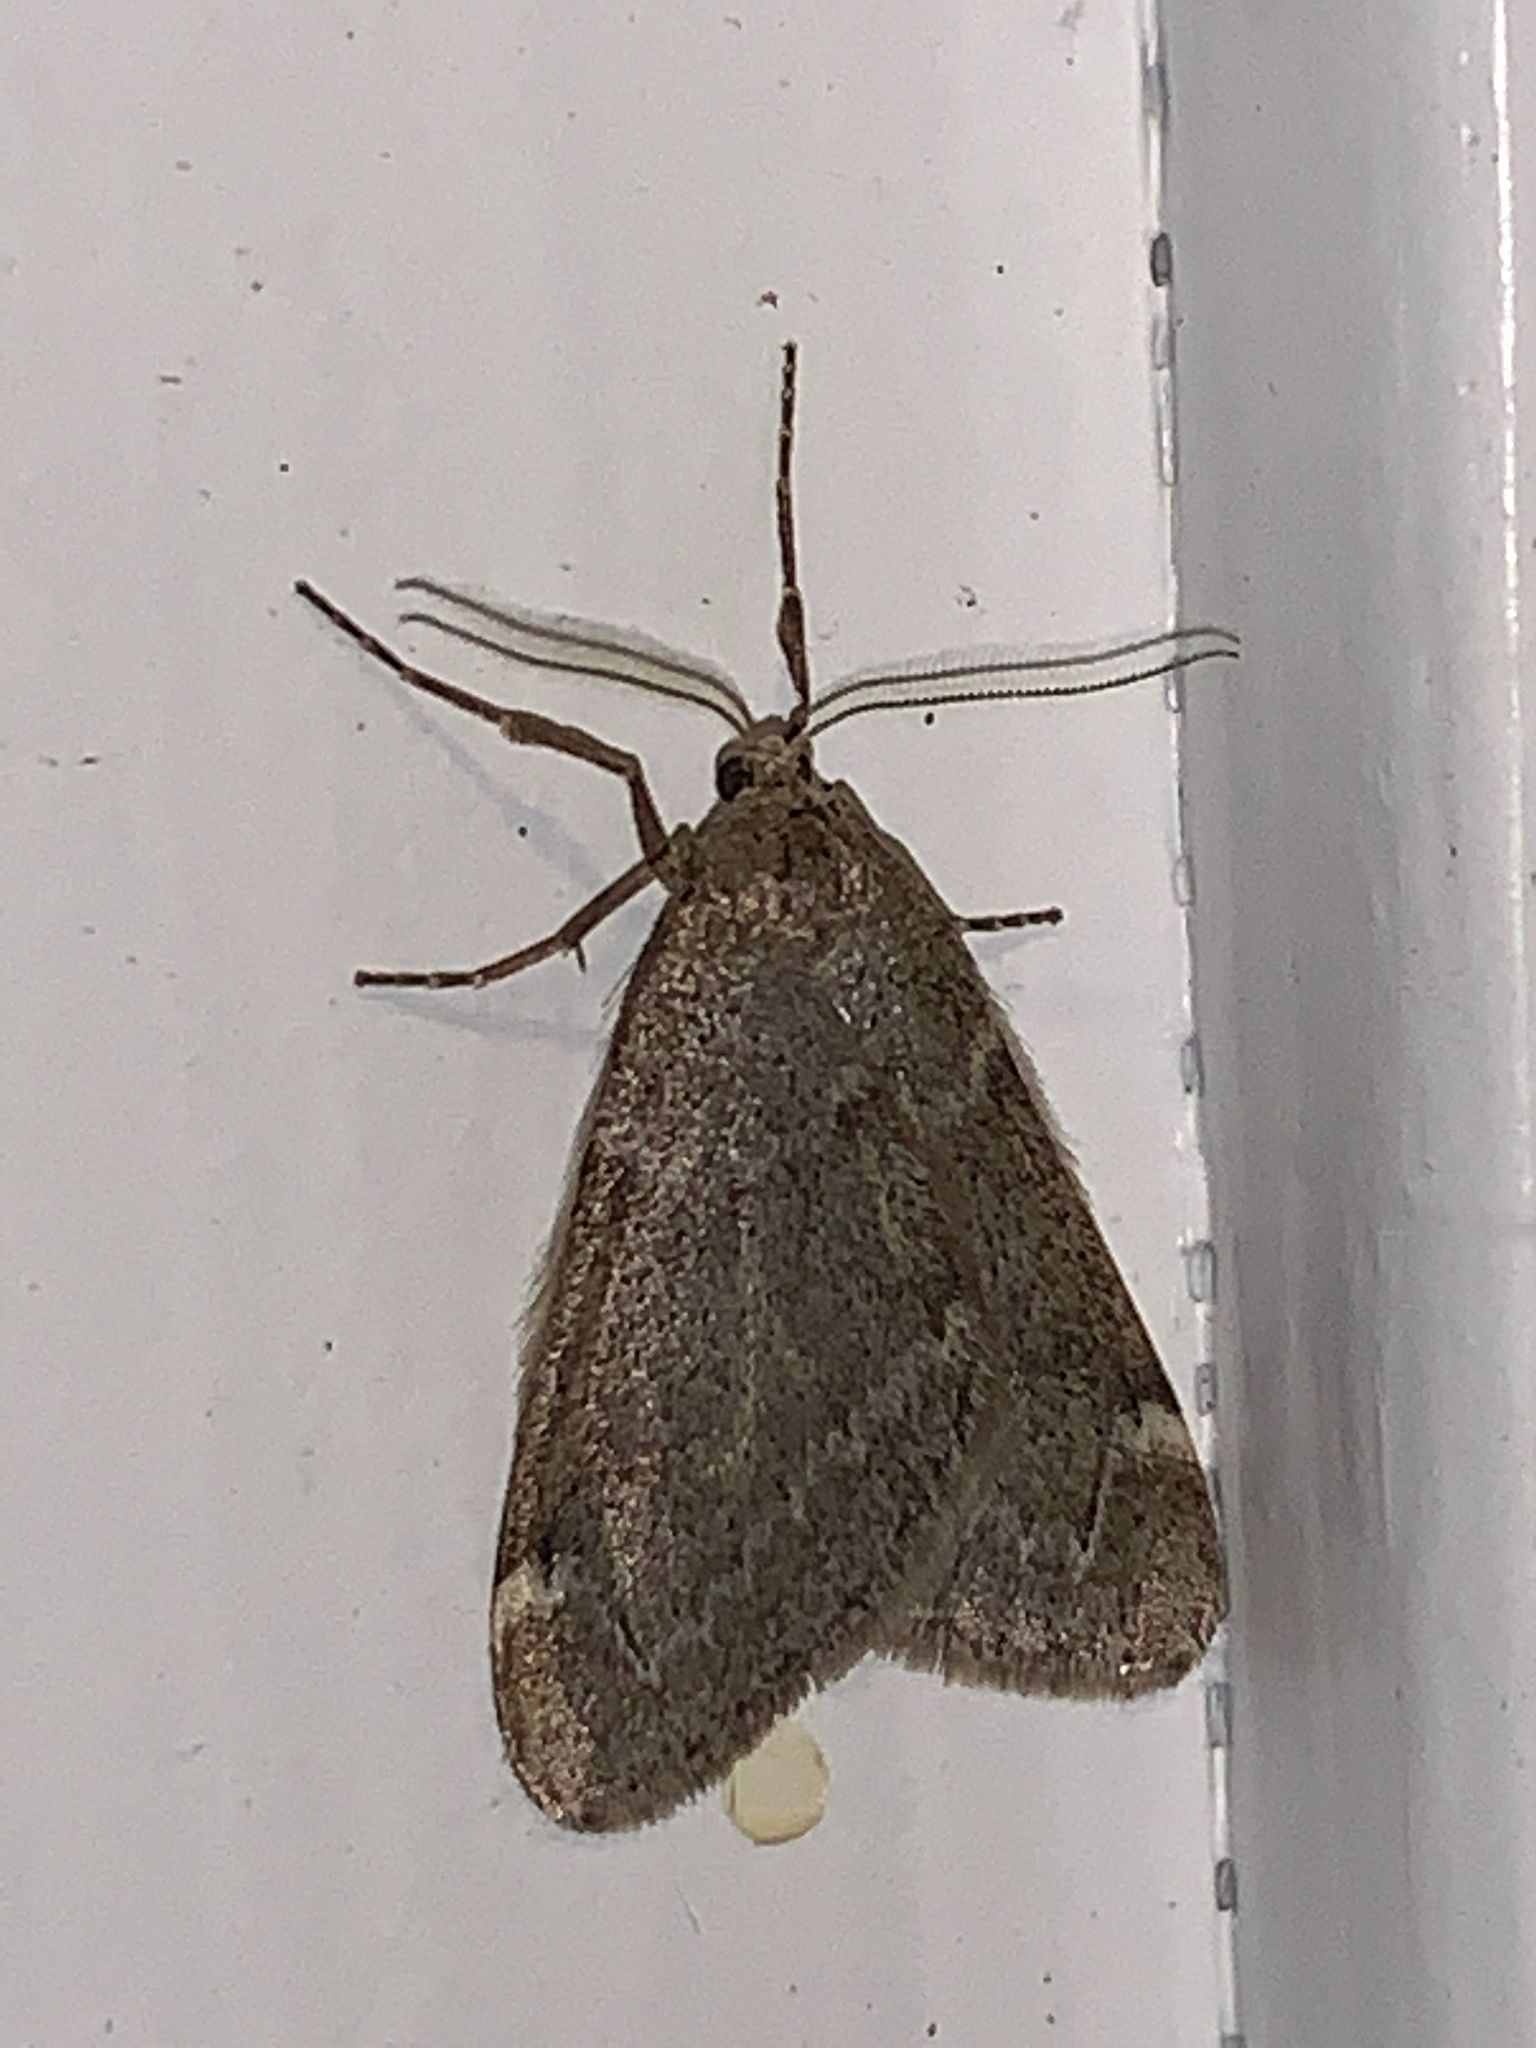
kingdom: Animalia
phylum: Arthropoda
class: Insecta
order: Lepidoptera
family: Geometridae
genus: Alsophila
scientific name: Alsophila pometaria
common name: Fall cankerworm
